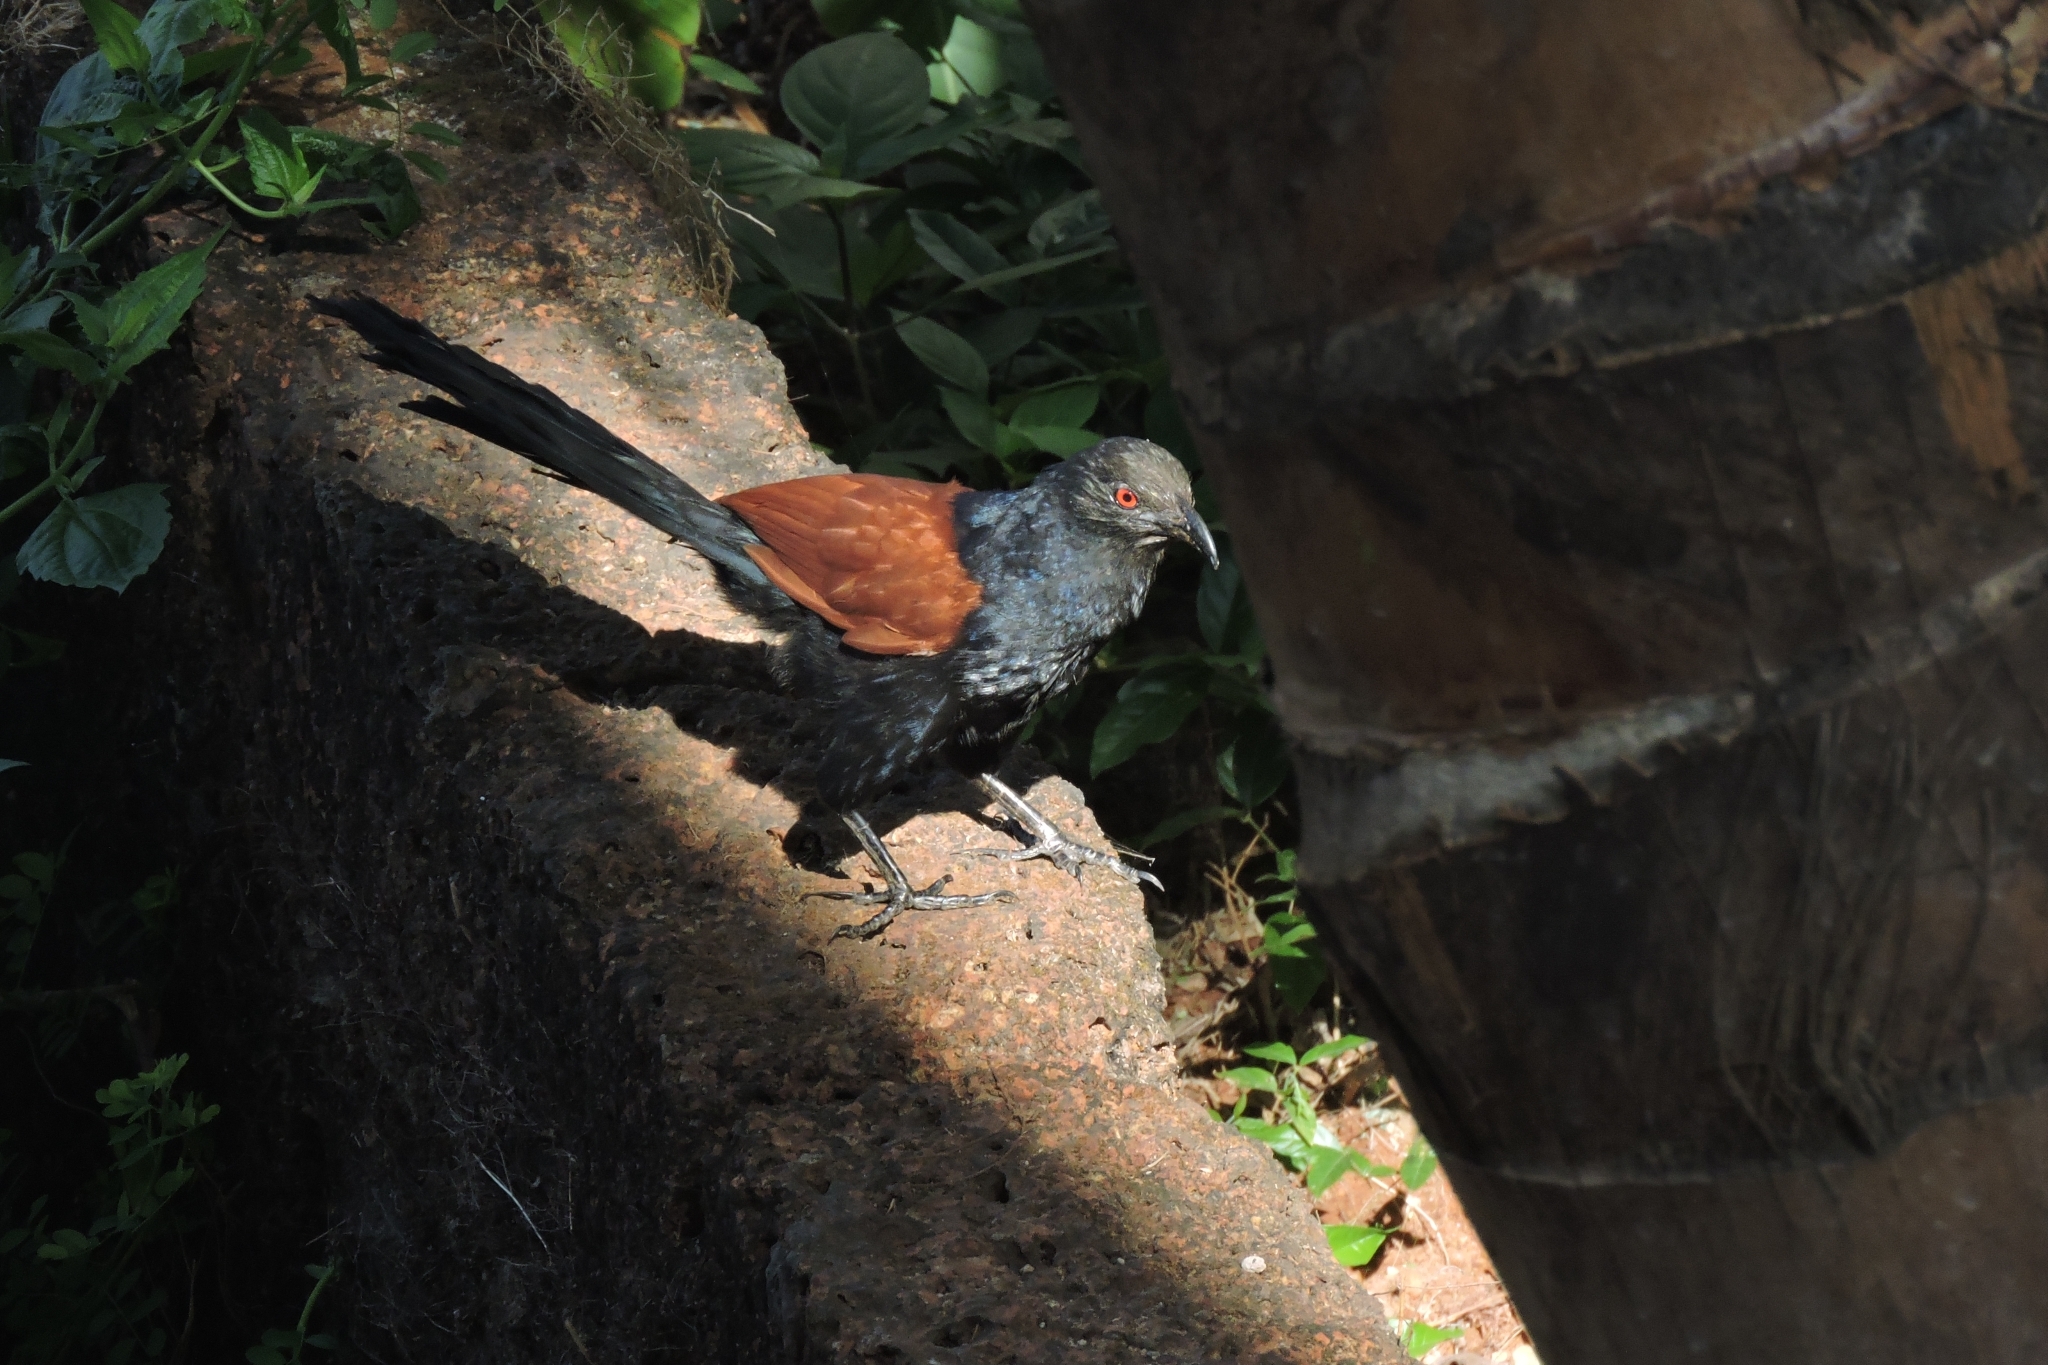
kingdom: Animalia
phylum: Chordata
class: Aves
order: Cuculiformes
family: Cuculidae
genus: Centropus
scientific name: Centropus sinensis
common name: Greater coucal
